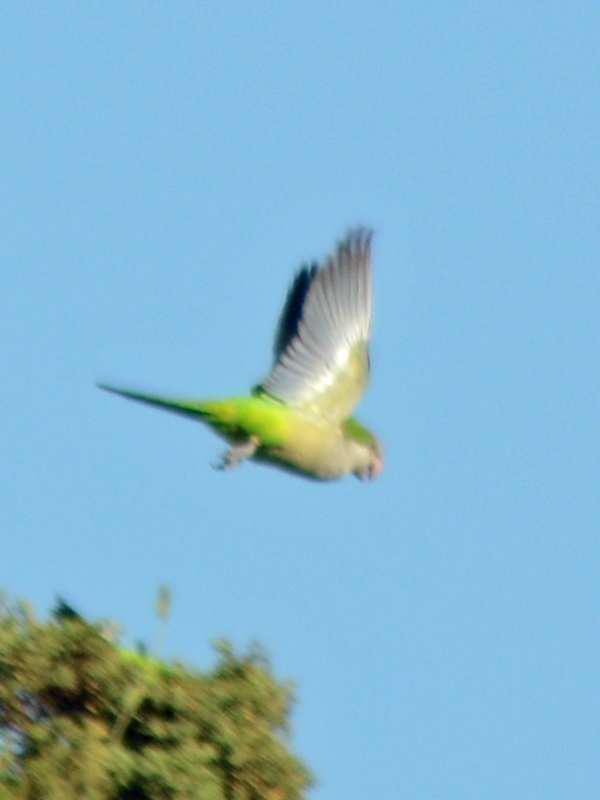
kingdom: Animalia
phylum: Chordata
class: Aves
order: Psittaciformes
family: Psittacidae
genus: Myiopsitta
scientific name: Myiopsitta monachus
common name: Monk parakeet
